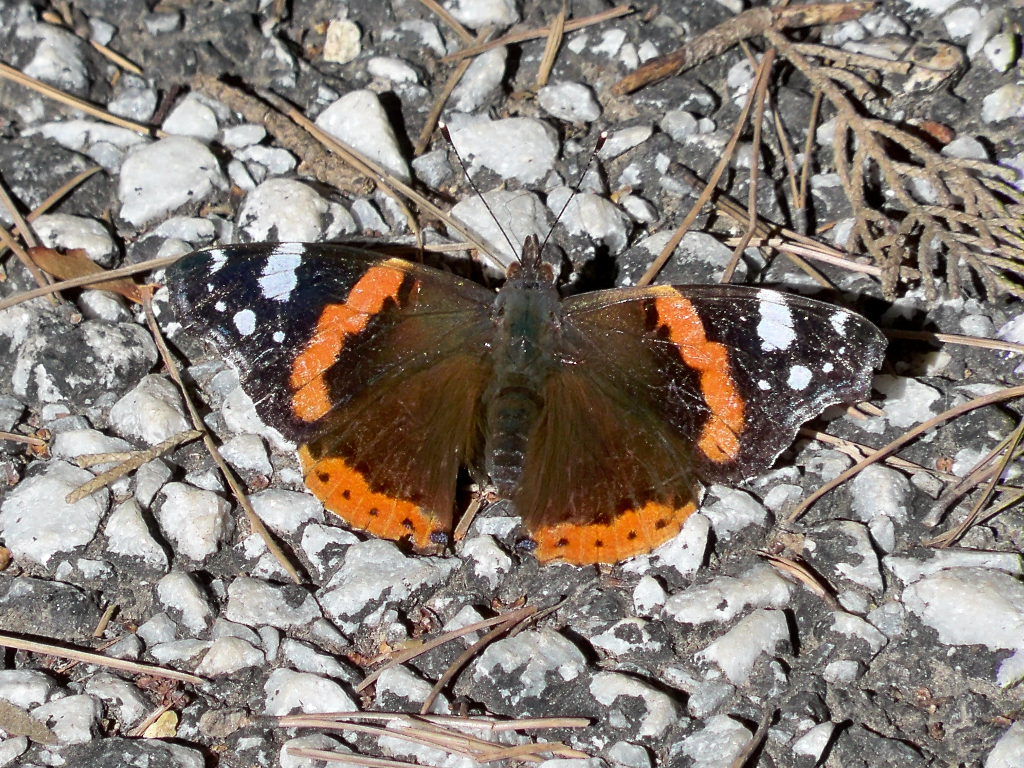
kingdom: Animalia
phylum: Arthropoda
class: Insecta
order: Lepidoptera
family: Nymphalidae
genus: Vanessa
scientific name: Vanessa atalanta
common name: Red admiral
